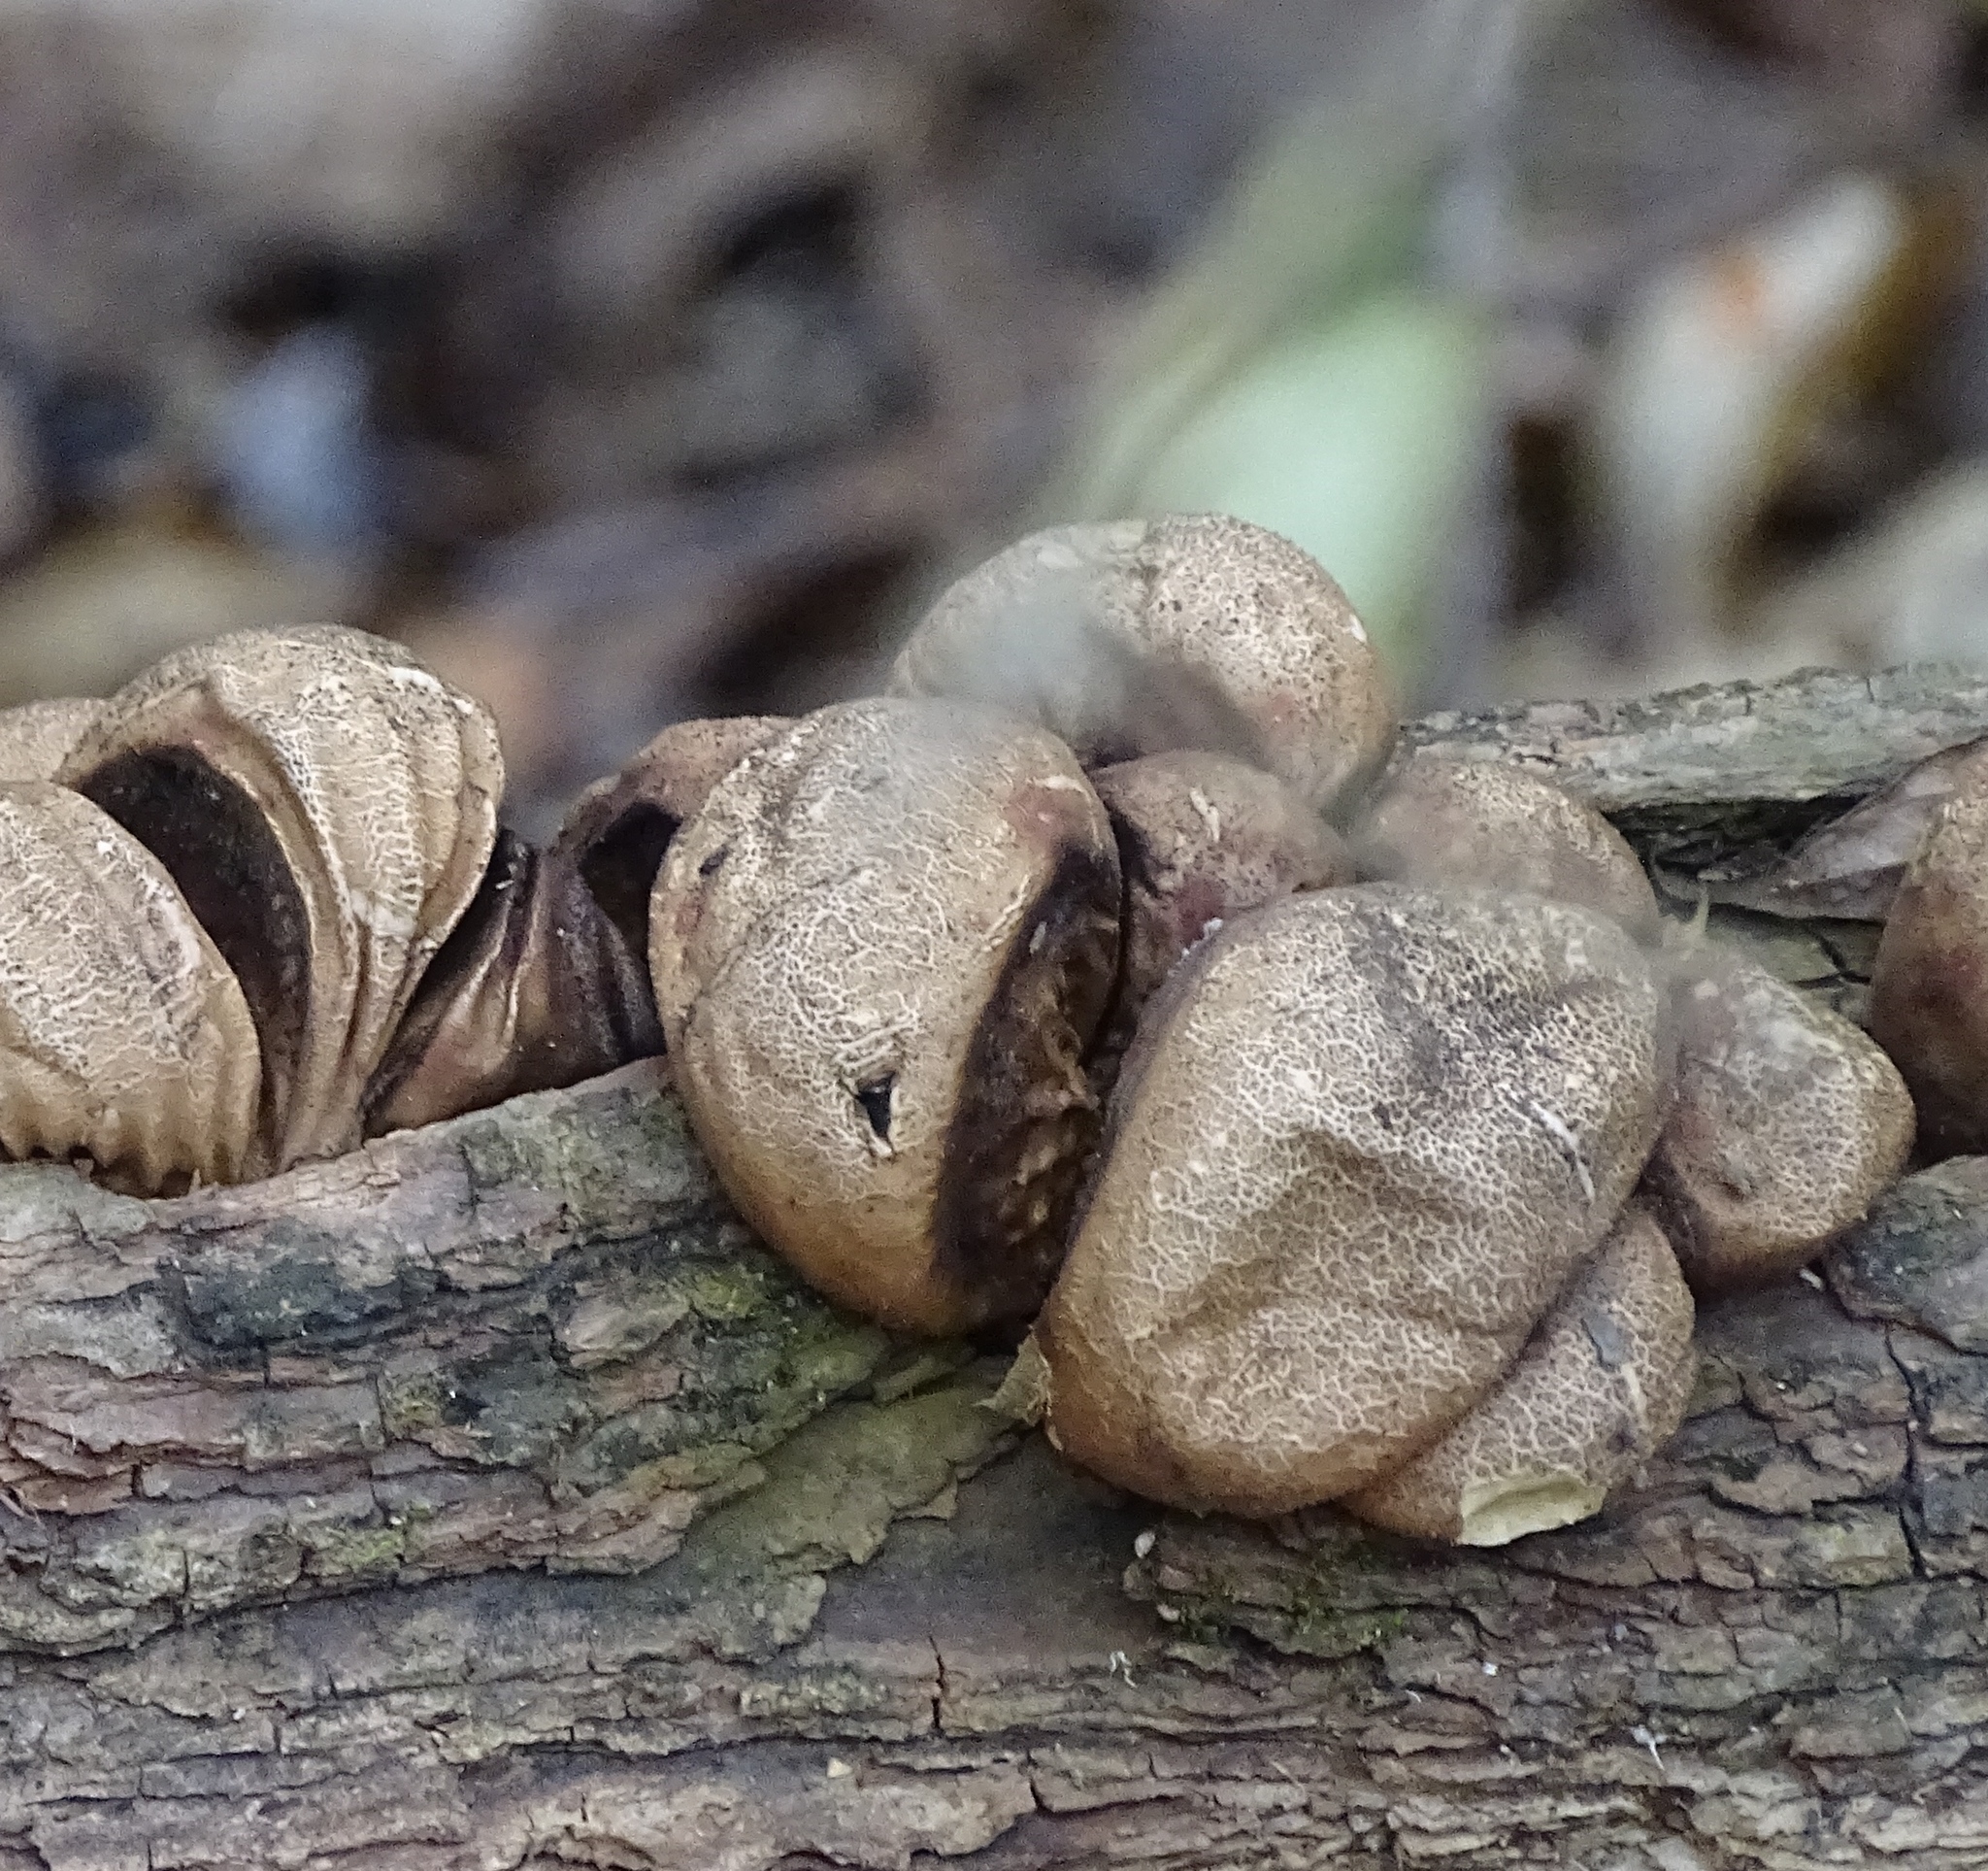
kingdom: Fungi
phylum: Basidiomycota
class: Agaricomycetes
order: Agaricales
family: Lycoperdaceae
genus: Apioperdon
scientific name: Apioperdon pyriforme
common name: Pear-shaped puffball
